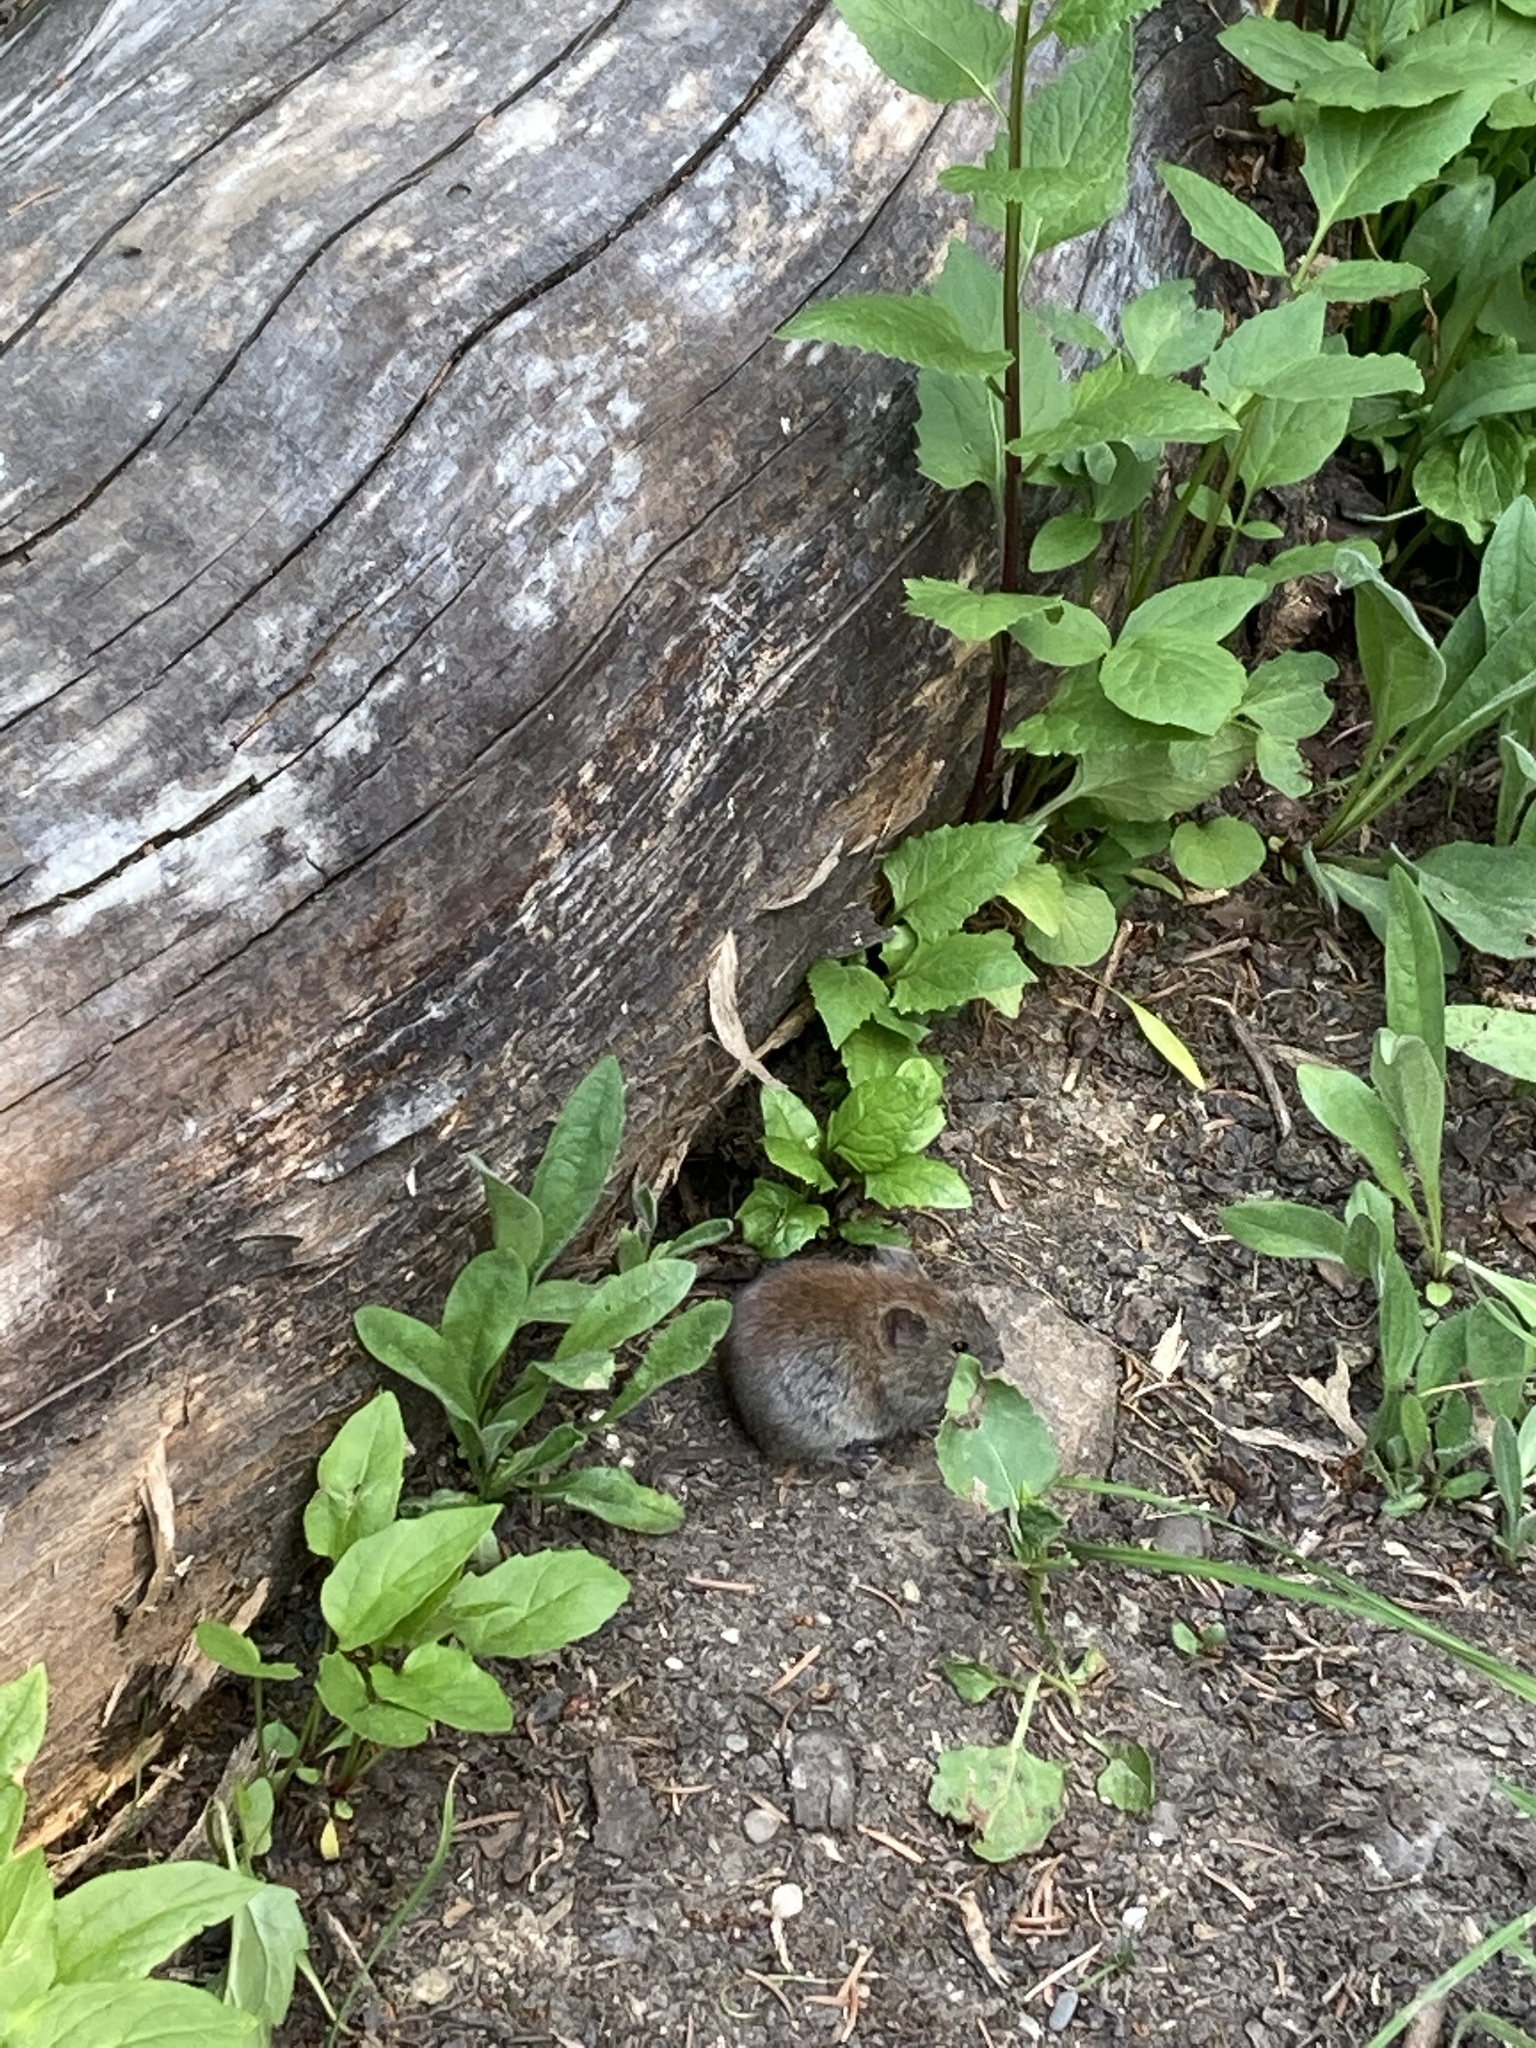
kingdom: Animalia
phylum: Chordata
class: Mammalia
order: Rodentia
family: Cricetidae
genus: Myodes
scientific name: Myodes gapperi
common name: Southern red-backed vole
